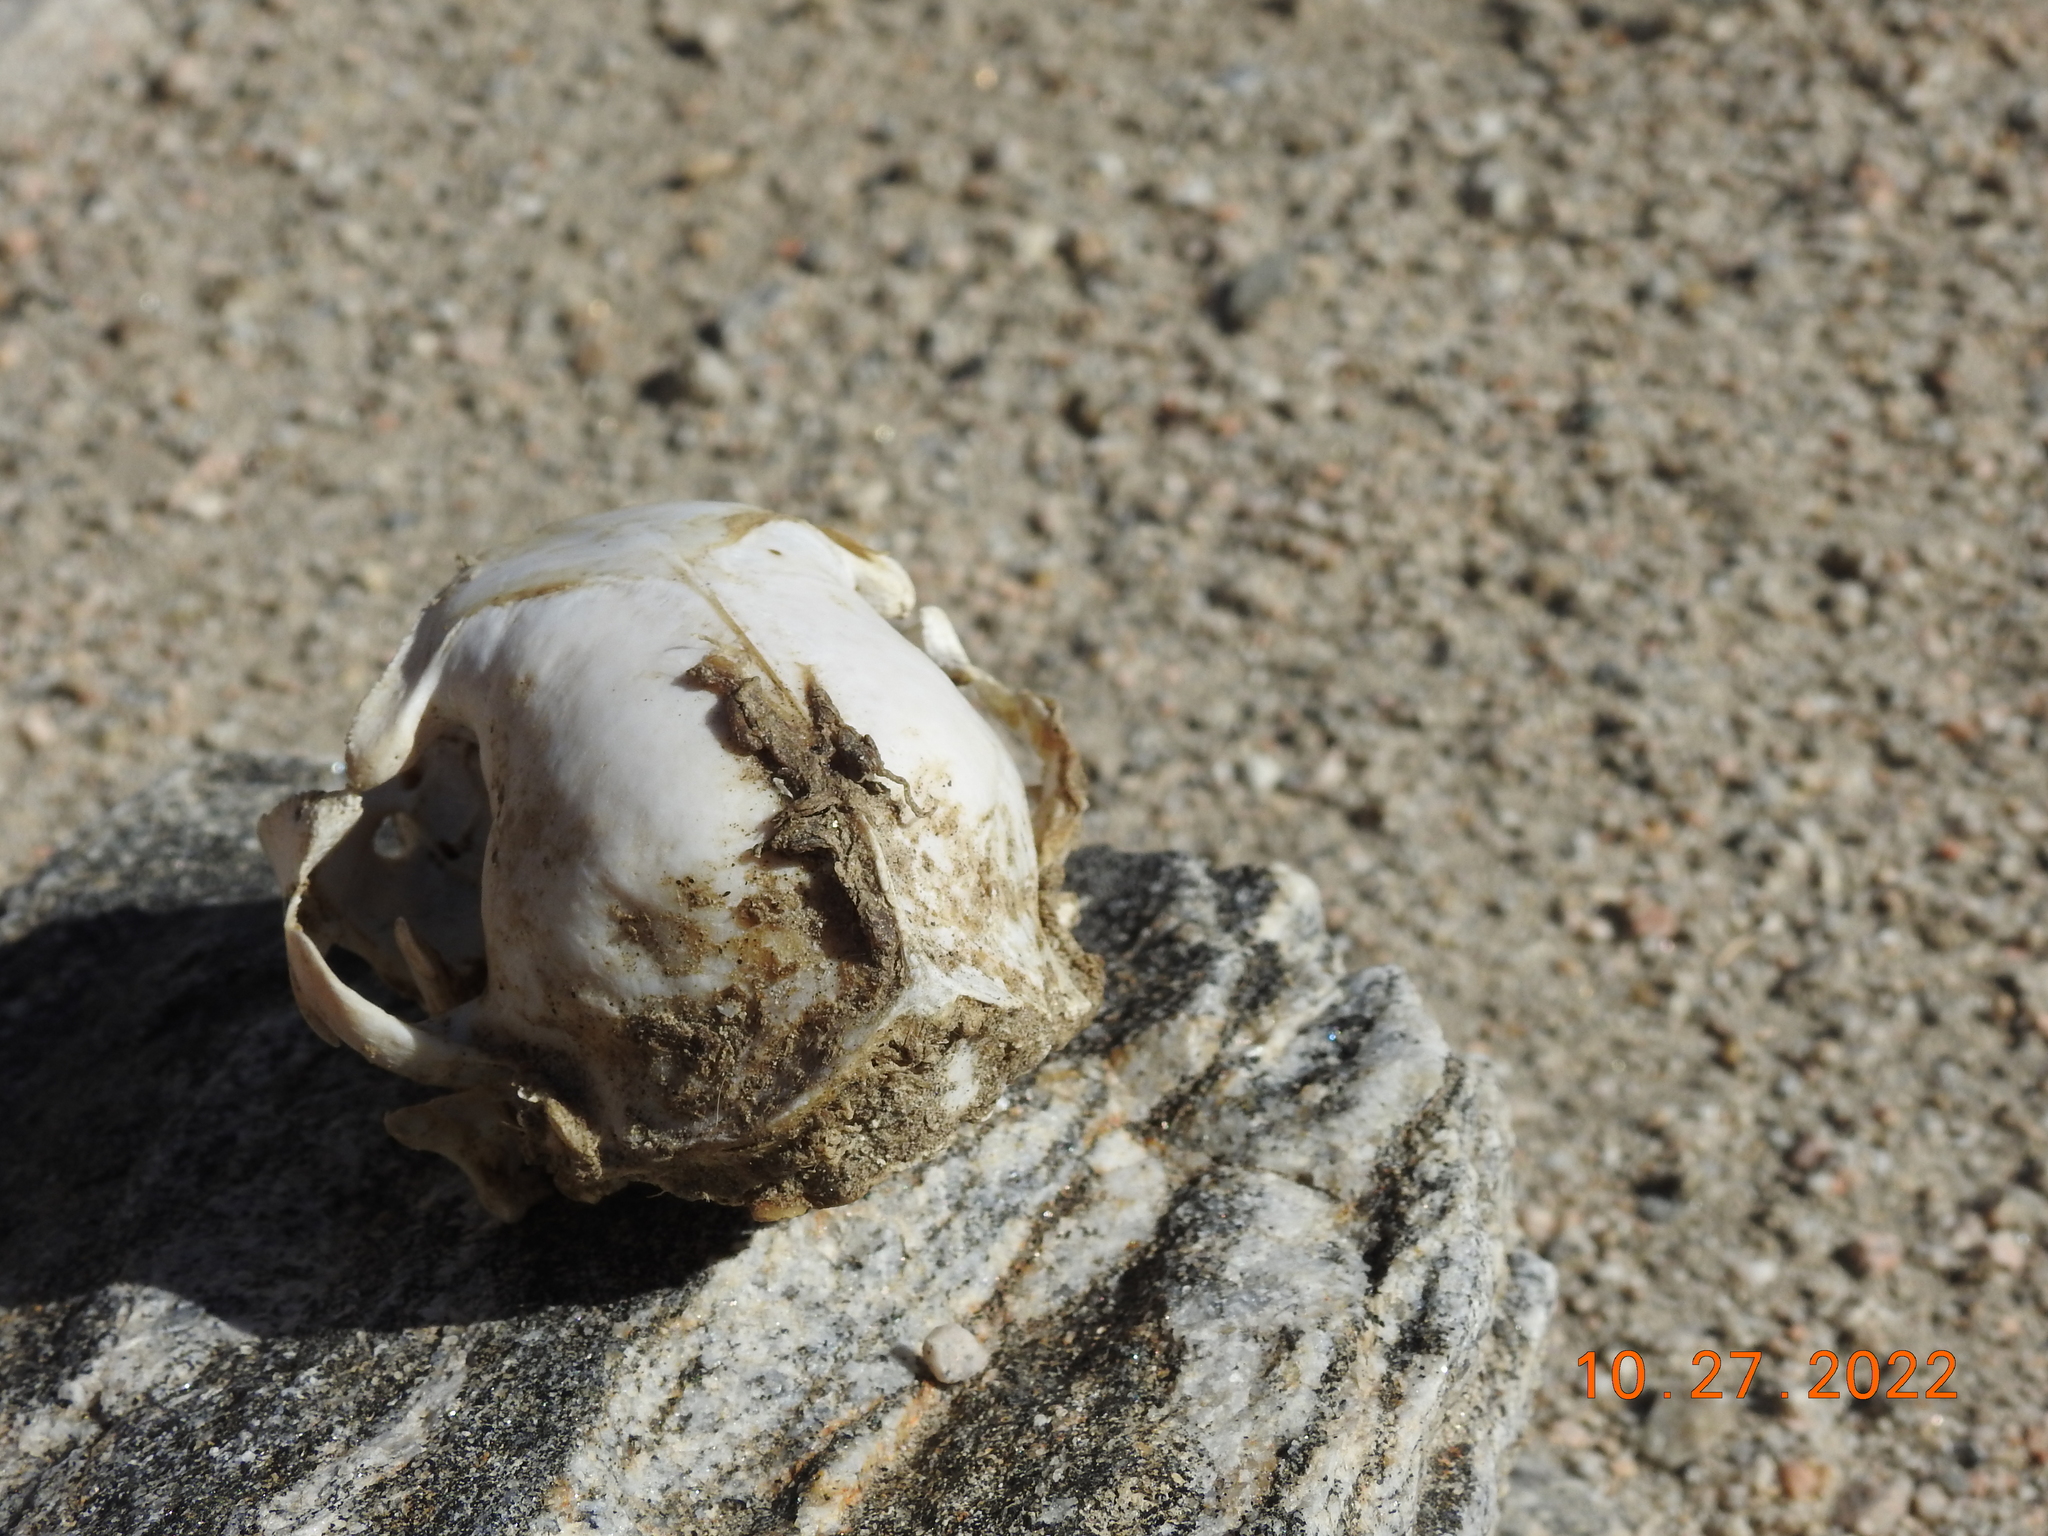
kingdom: Animalia
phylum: Chordata
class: Mammalia
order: Carnivora
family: Felidae
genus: Felis
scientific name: Felis catus
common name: Domestic cat
